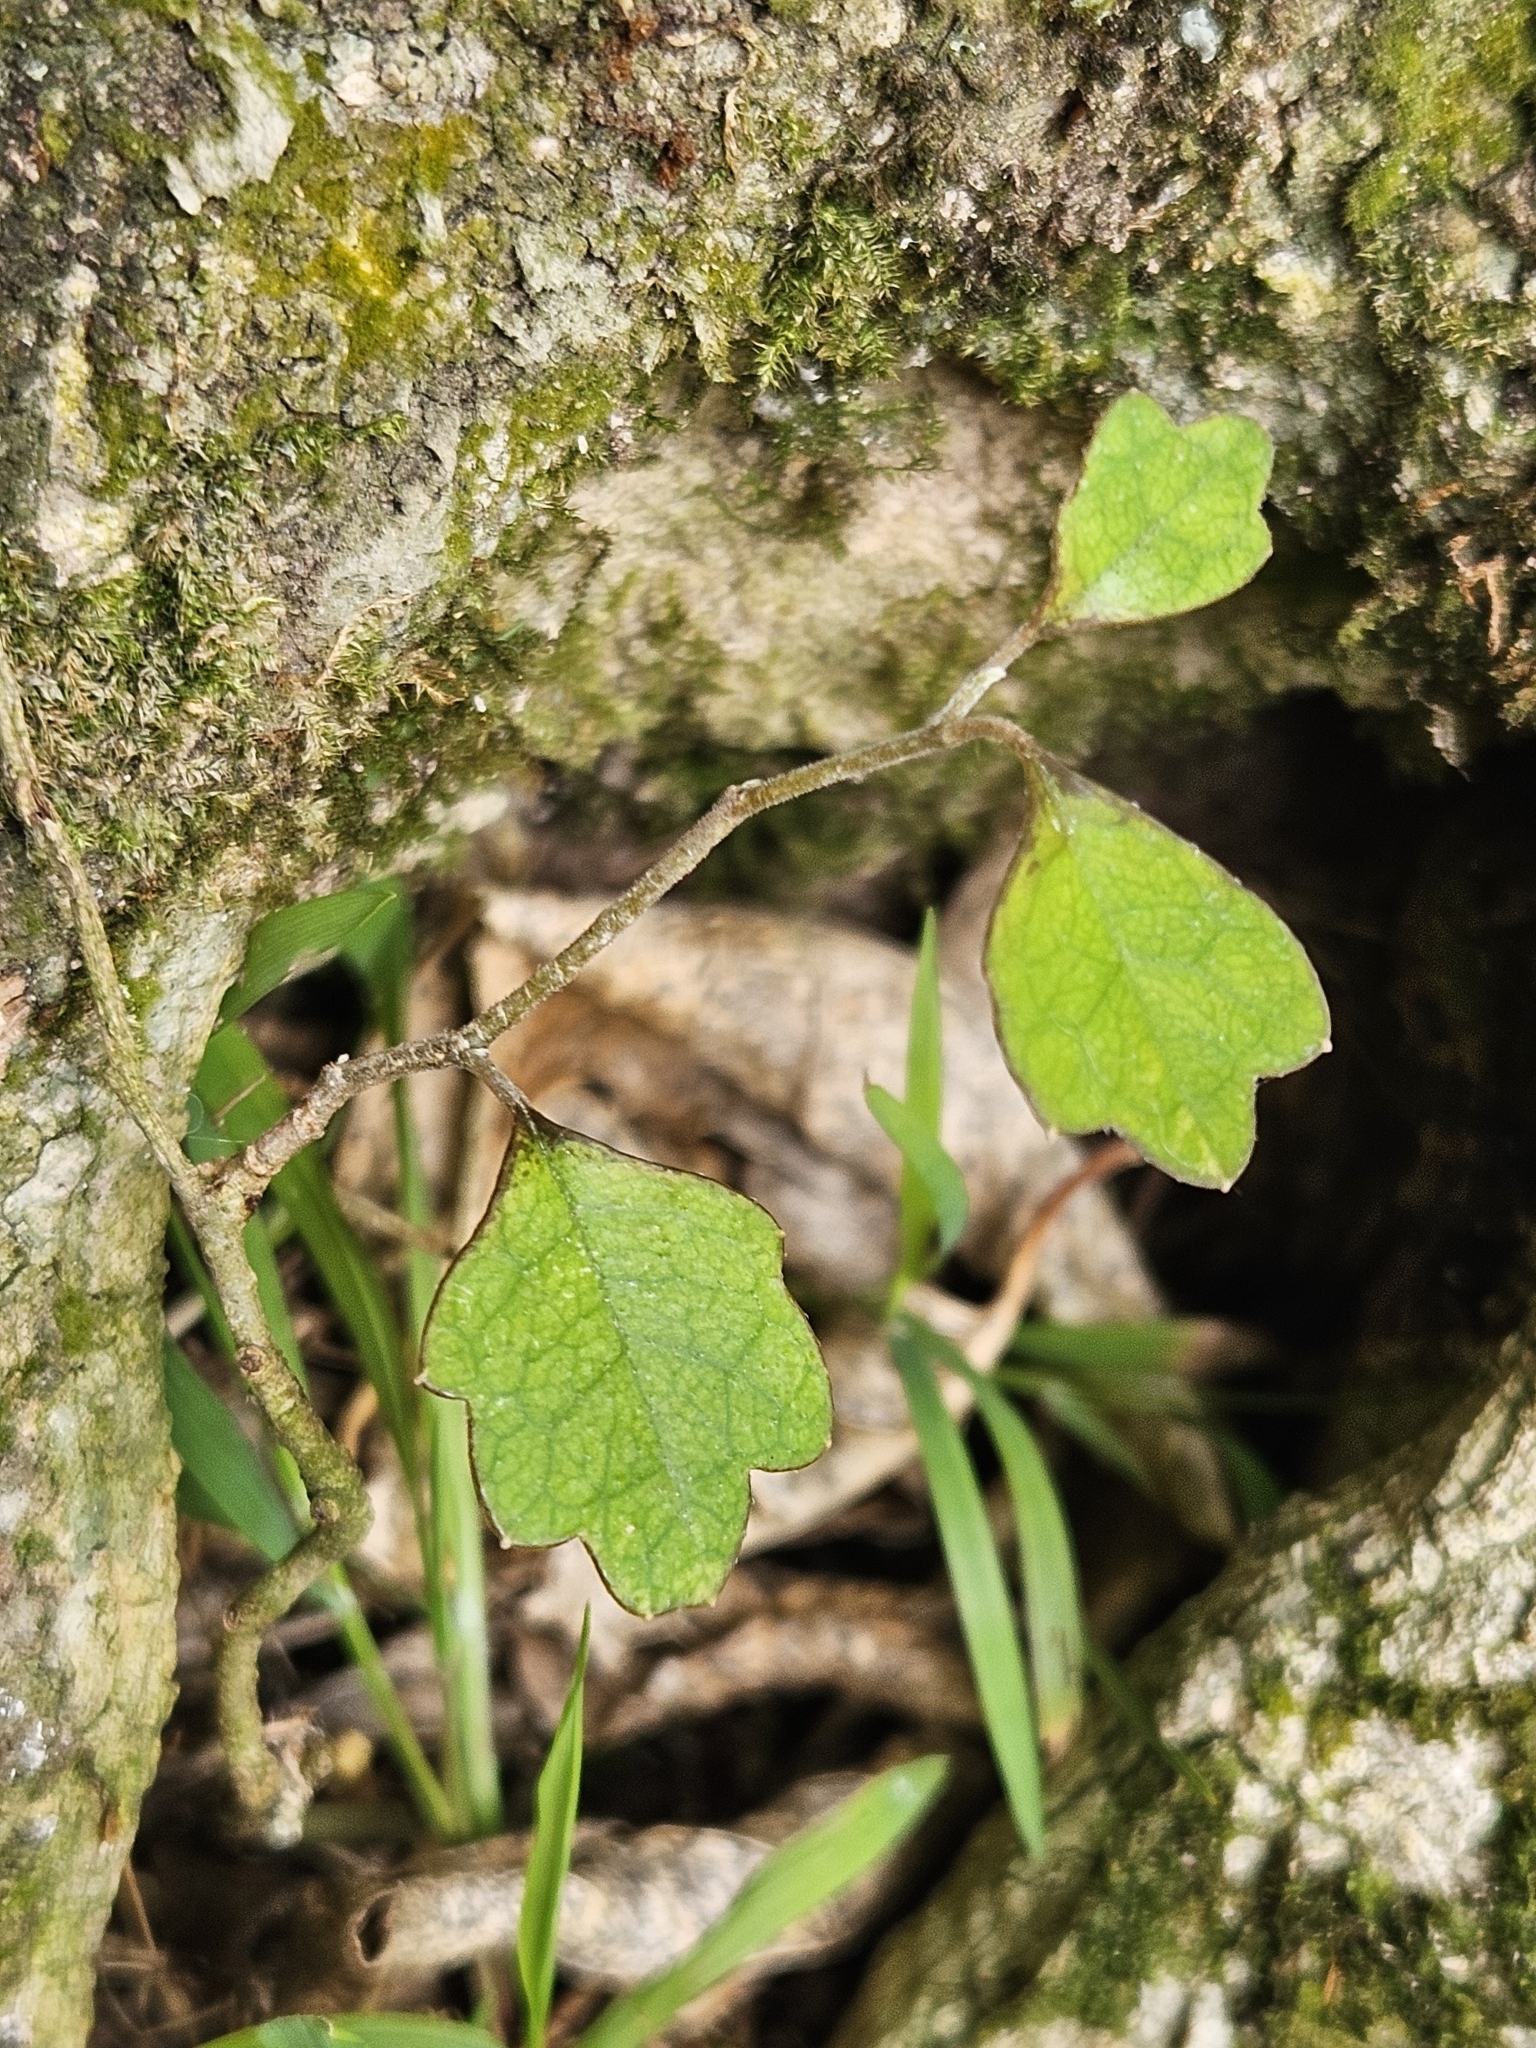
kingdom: Plantae
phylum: Tracheophyta
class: Magnoliopsida
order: Apiales
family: Pennantiaceae
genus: Pennantia
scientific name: Pennantia corymbosa
